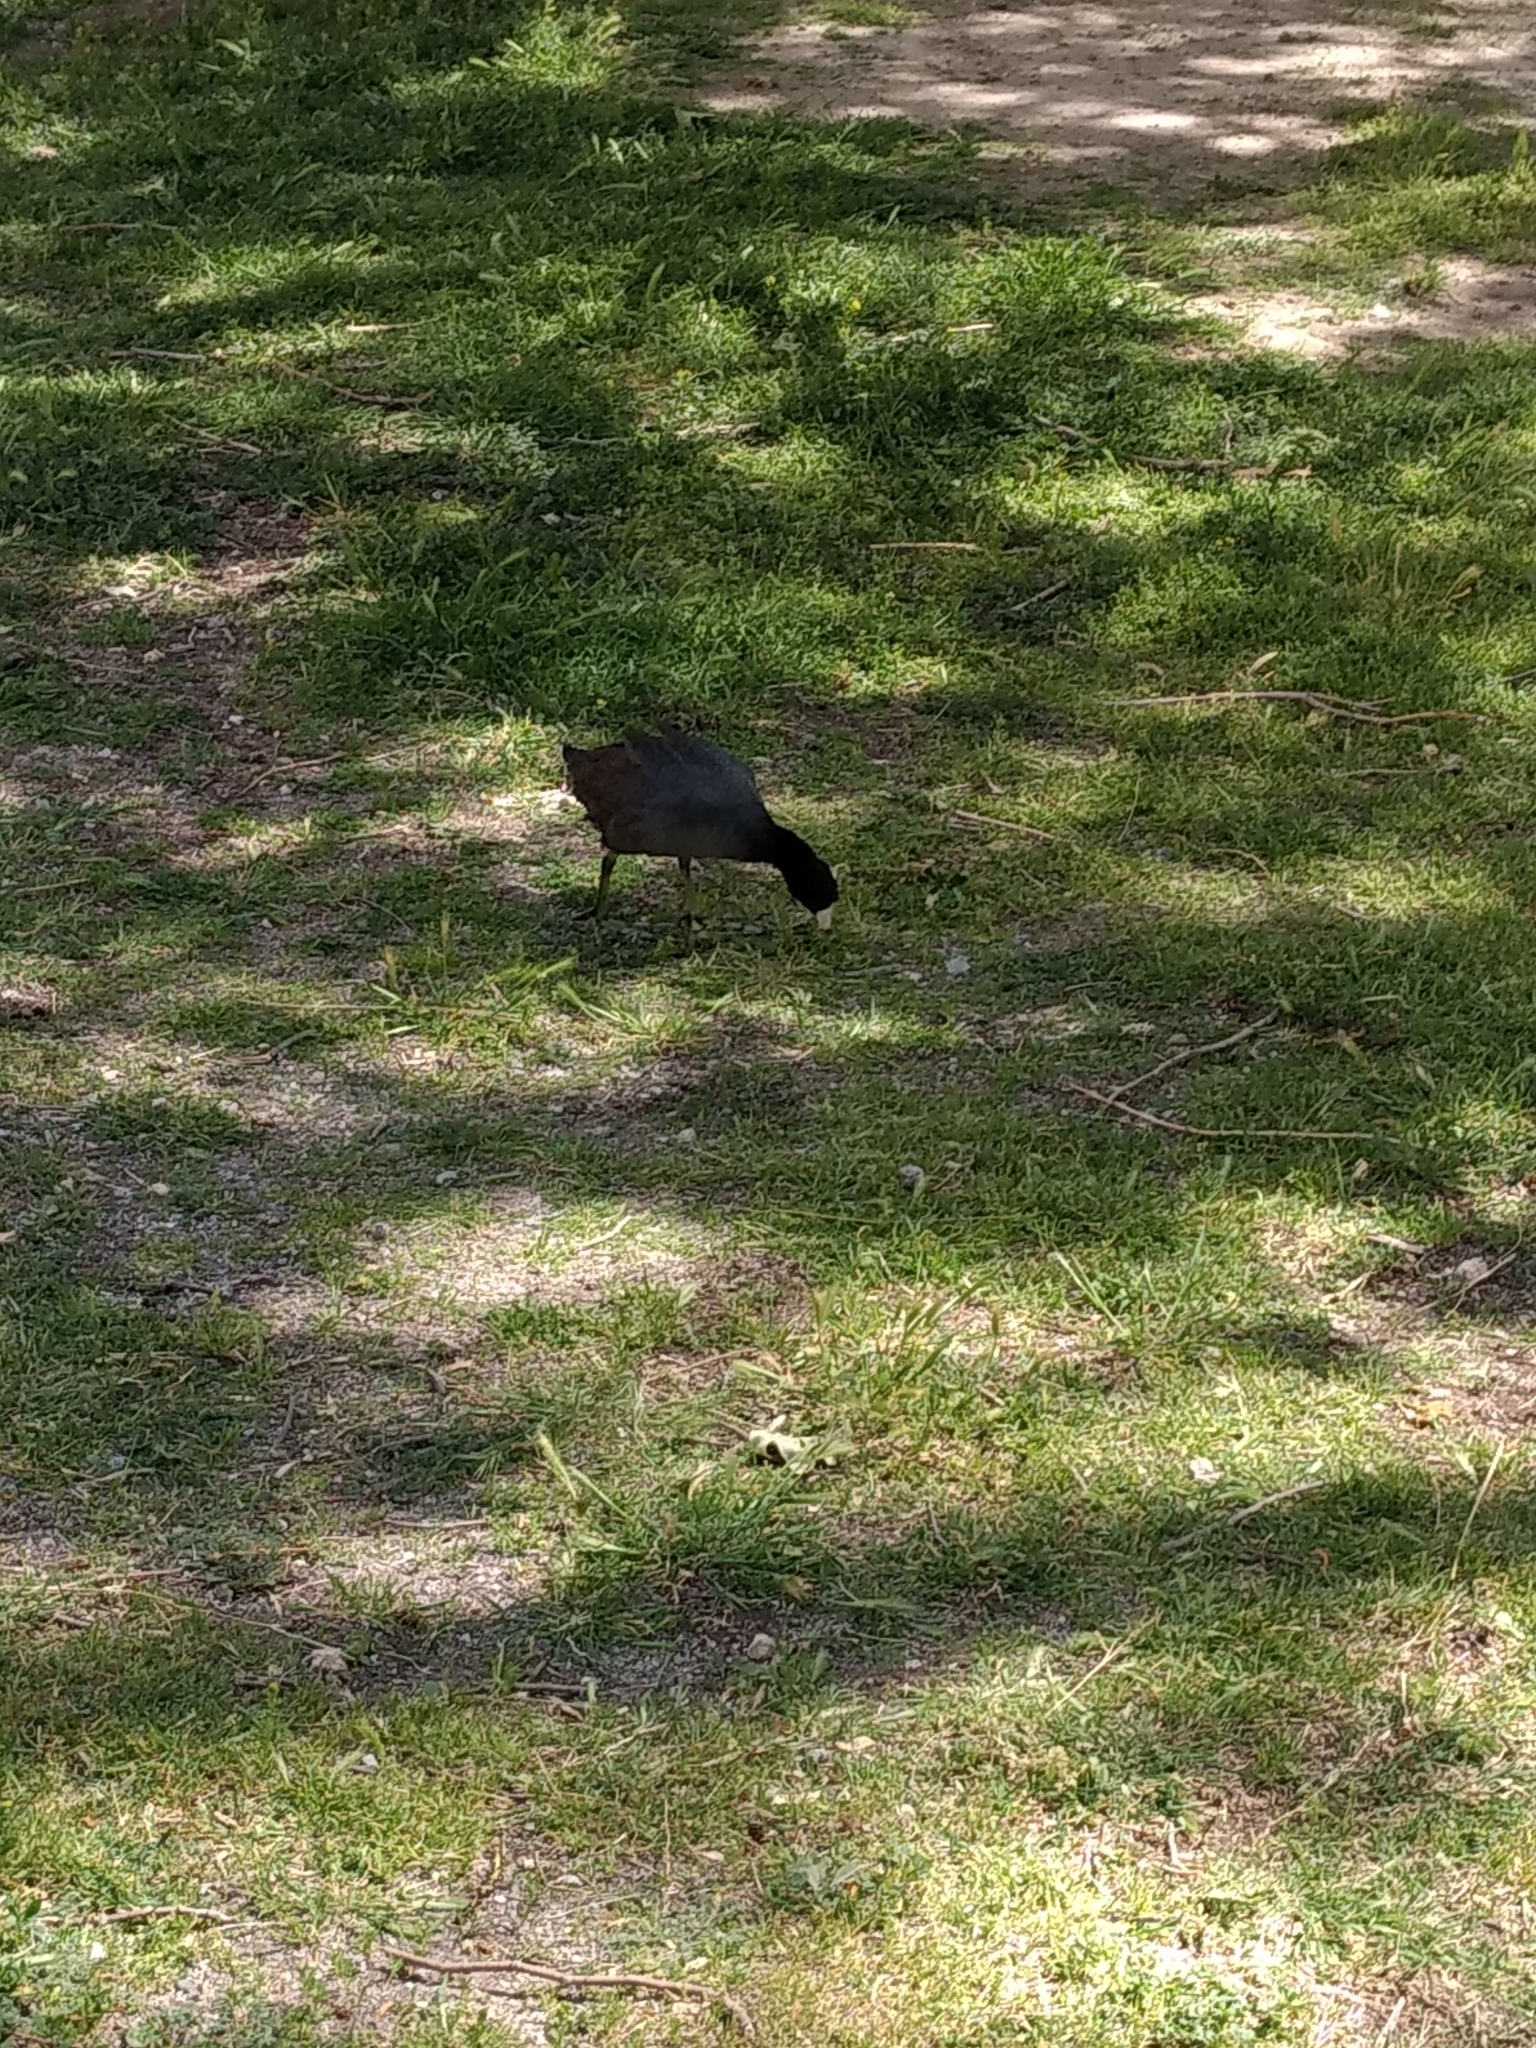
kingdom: Animalia
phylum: Chordata
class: Aves
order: Gruiformes
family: Rallidae
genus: Fulica
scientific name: Fulica americana
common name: American coot
